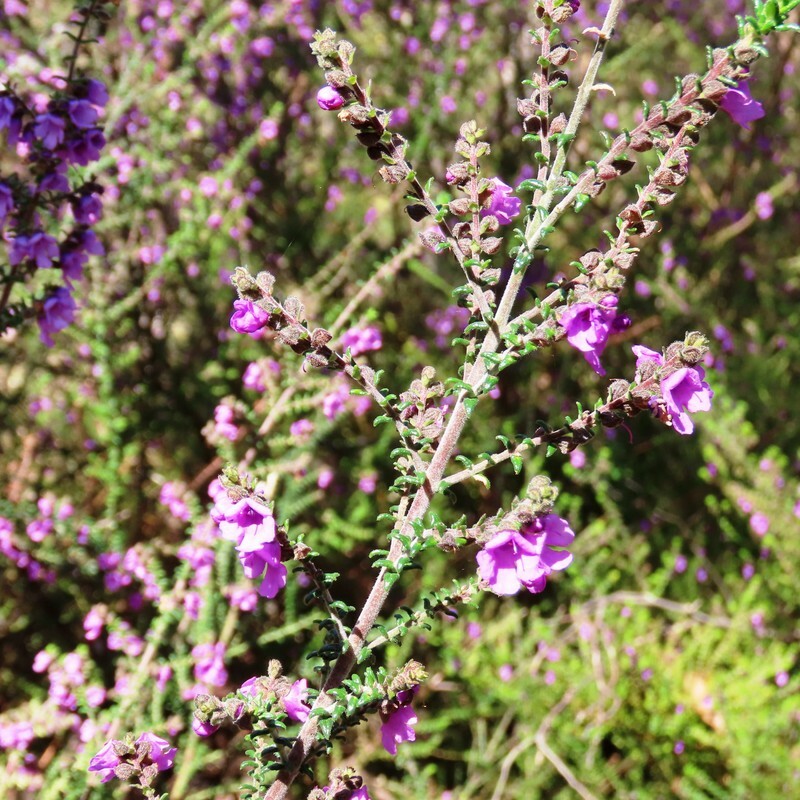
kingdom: Plantae
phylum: Tracheophyta
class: Magnoliopsida
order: Lamiales
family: Lamiaceae
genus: Prostanthera
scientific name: Prostanthera decussata
